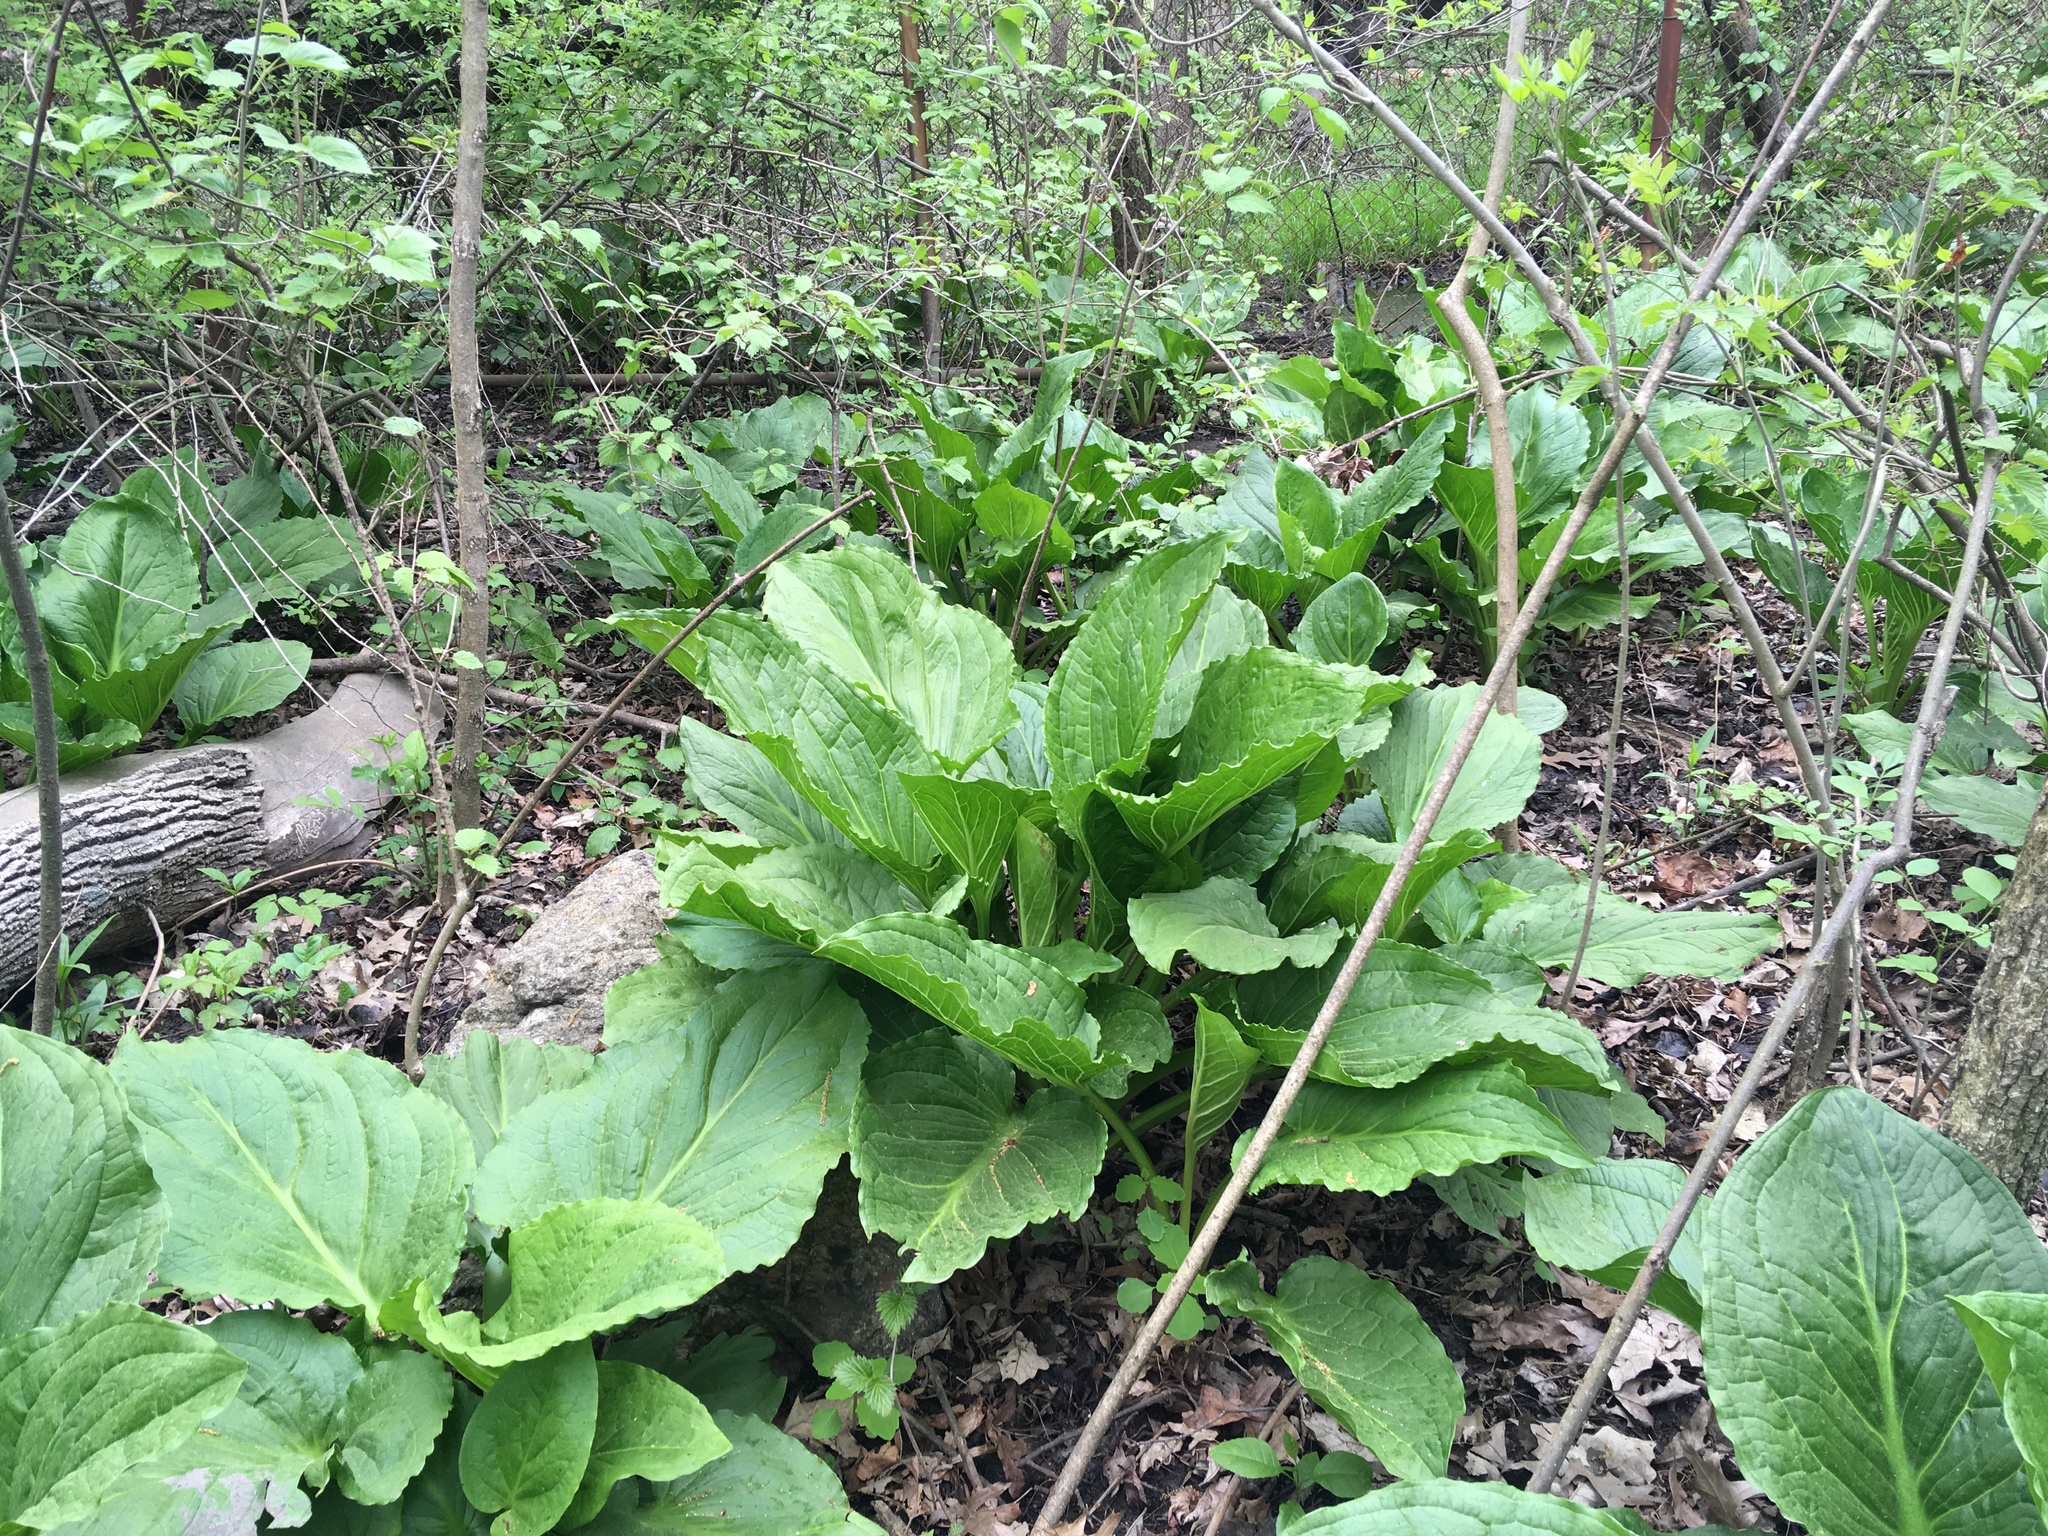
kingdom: Plantae
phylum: Tracheophyta
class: Liliopsida
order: Alismatales
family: Araceae
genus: Symplocarpus
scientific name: Symplocarpus foetidus
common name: Eastern skunk cabbage
